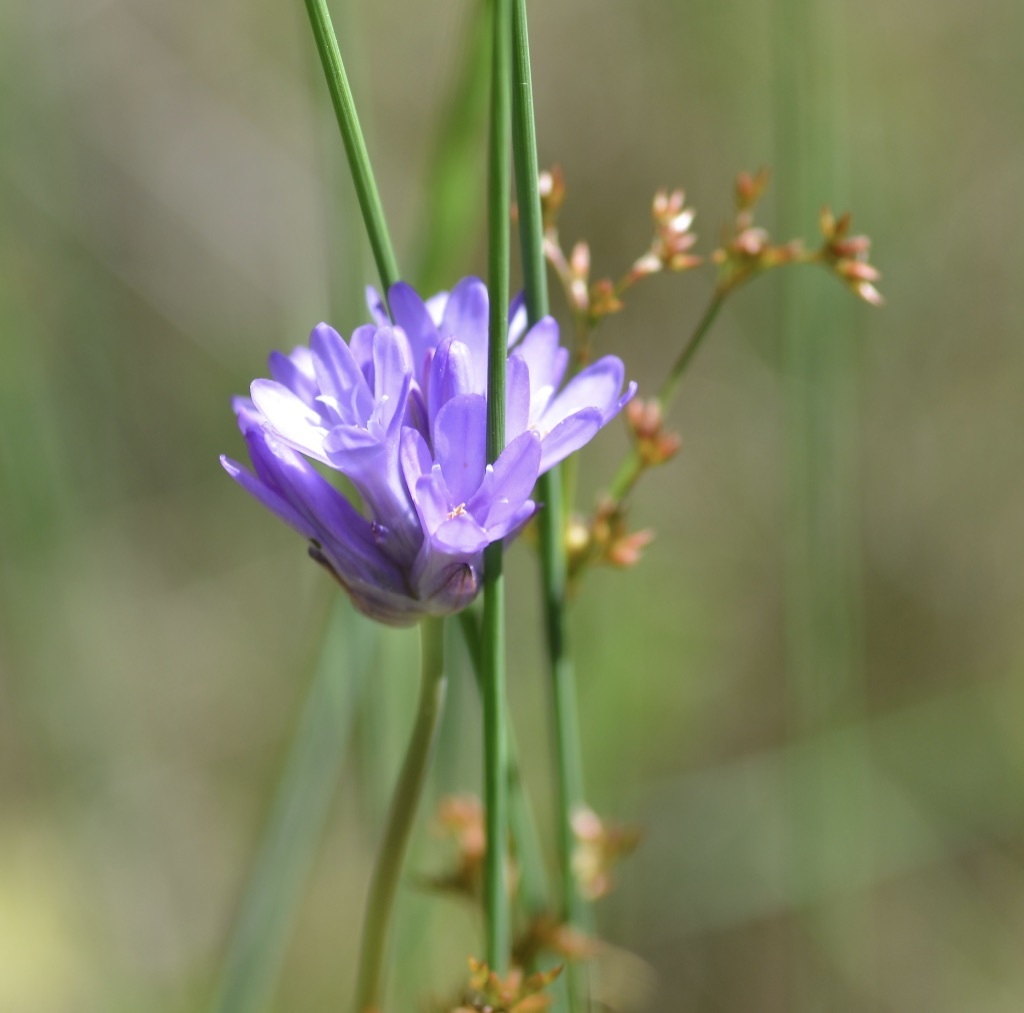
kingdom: Plantae
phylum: Tracheophyta
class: Liliopsida
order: Asparagales
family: Asparagaceae
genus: Dichelostemma
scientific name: Dichelostemma congestum
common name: Fork-tooth ookow
